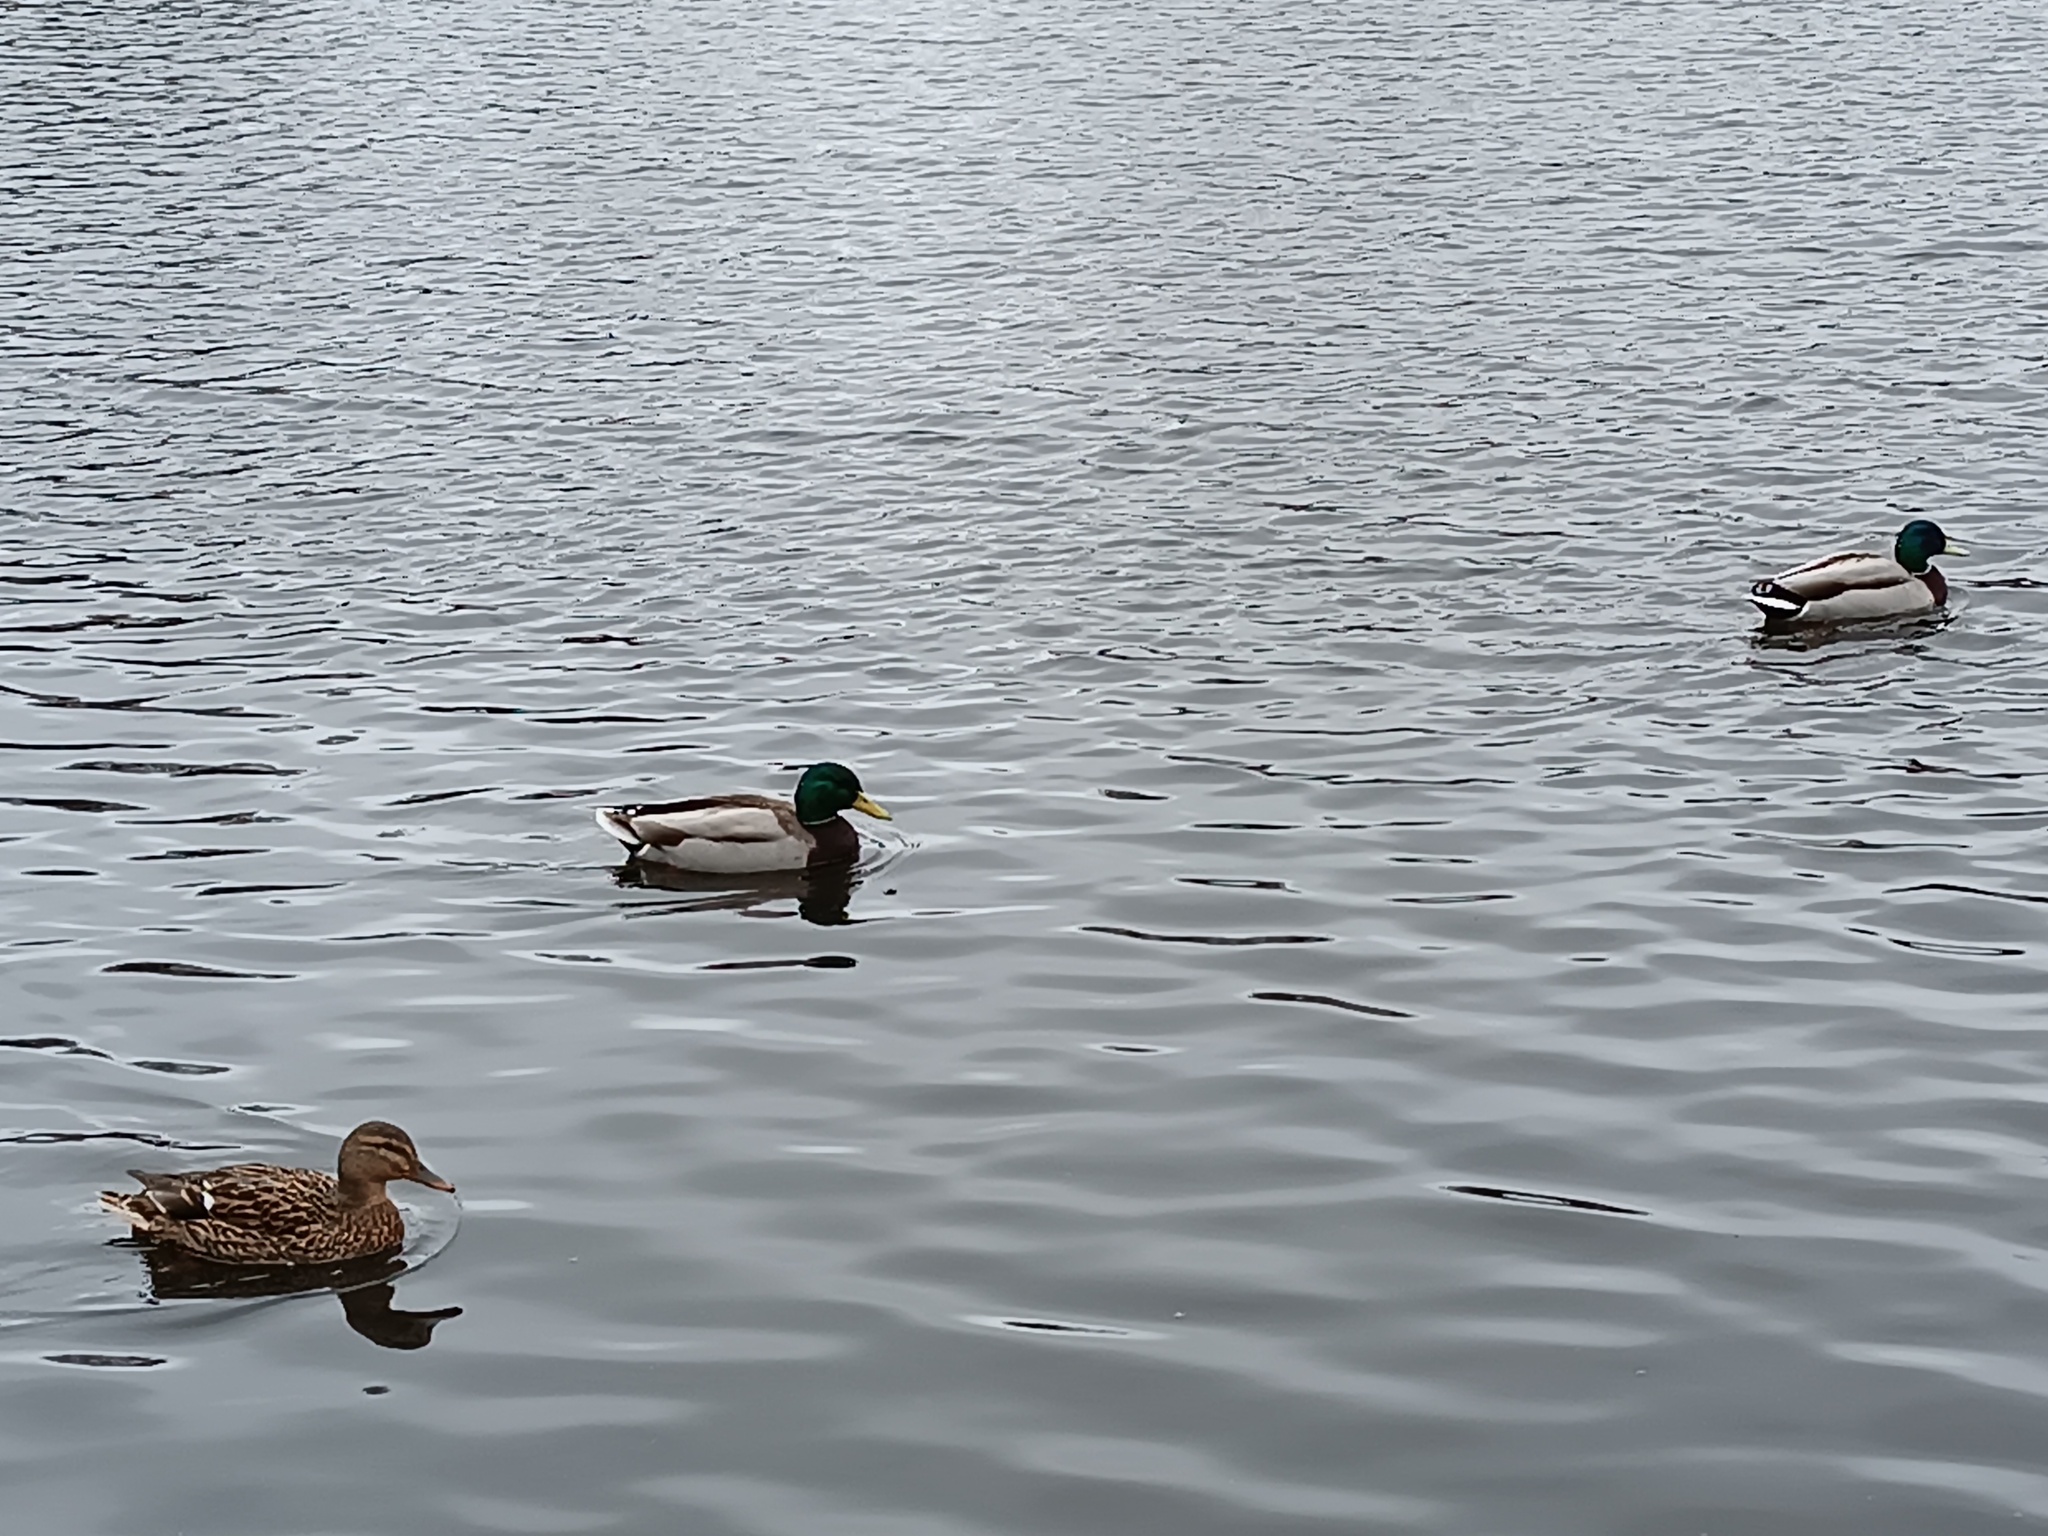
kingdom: Animalia
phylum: Chordata
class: Aves
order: Anseriformes
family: Anatidae
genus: Anas
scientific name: Anas platyrhynchos
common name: Mallard
